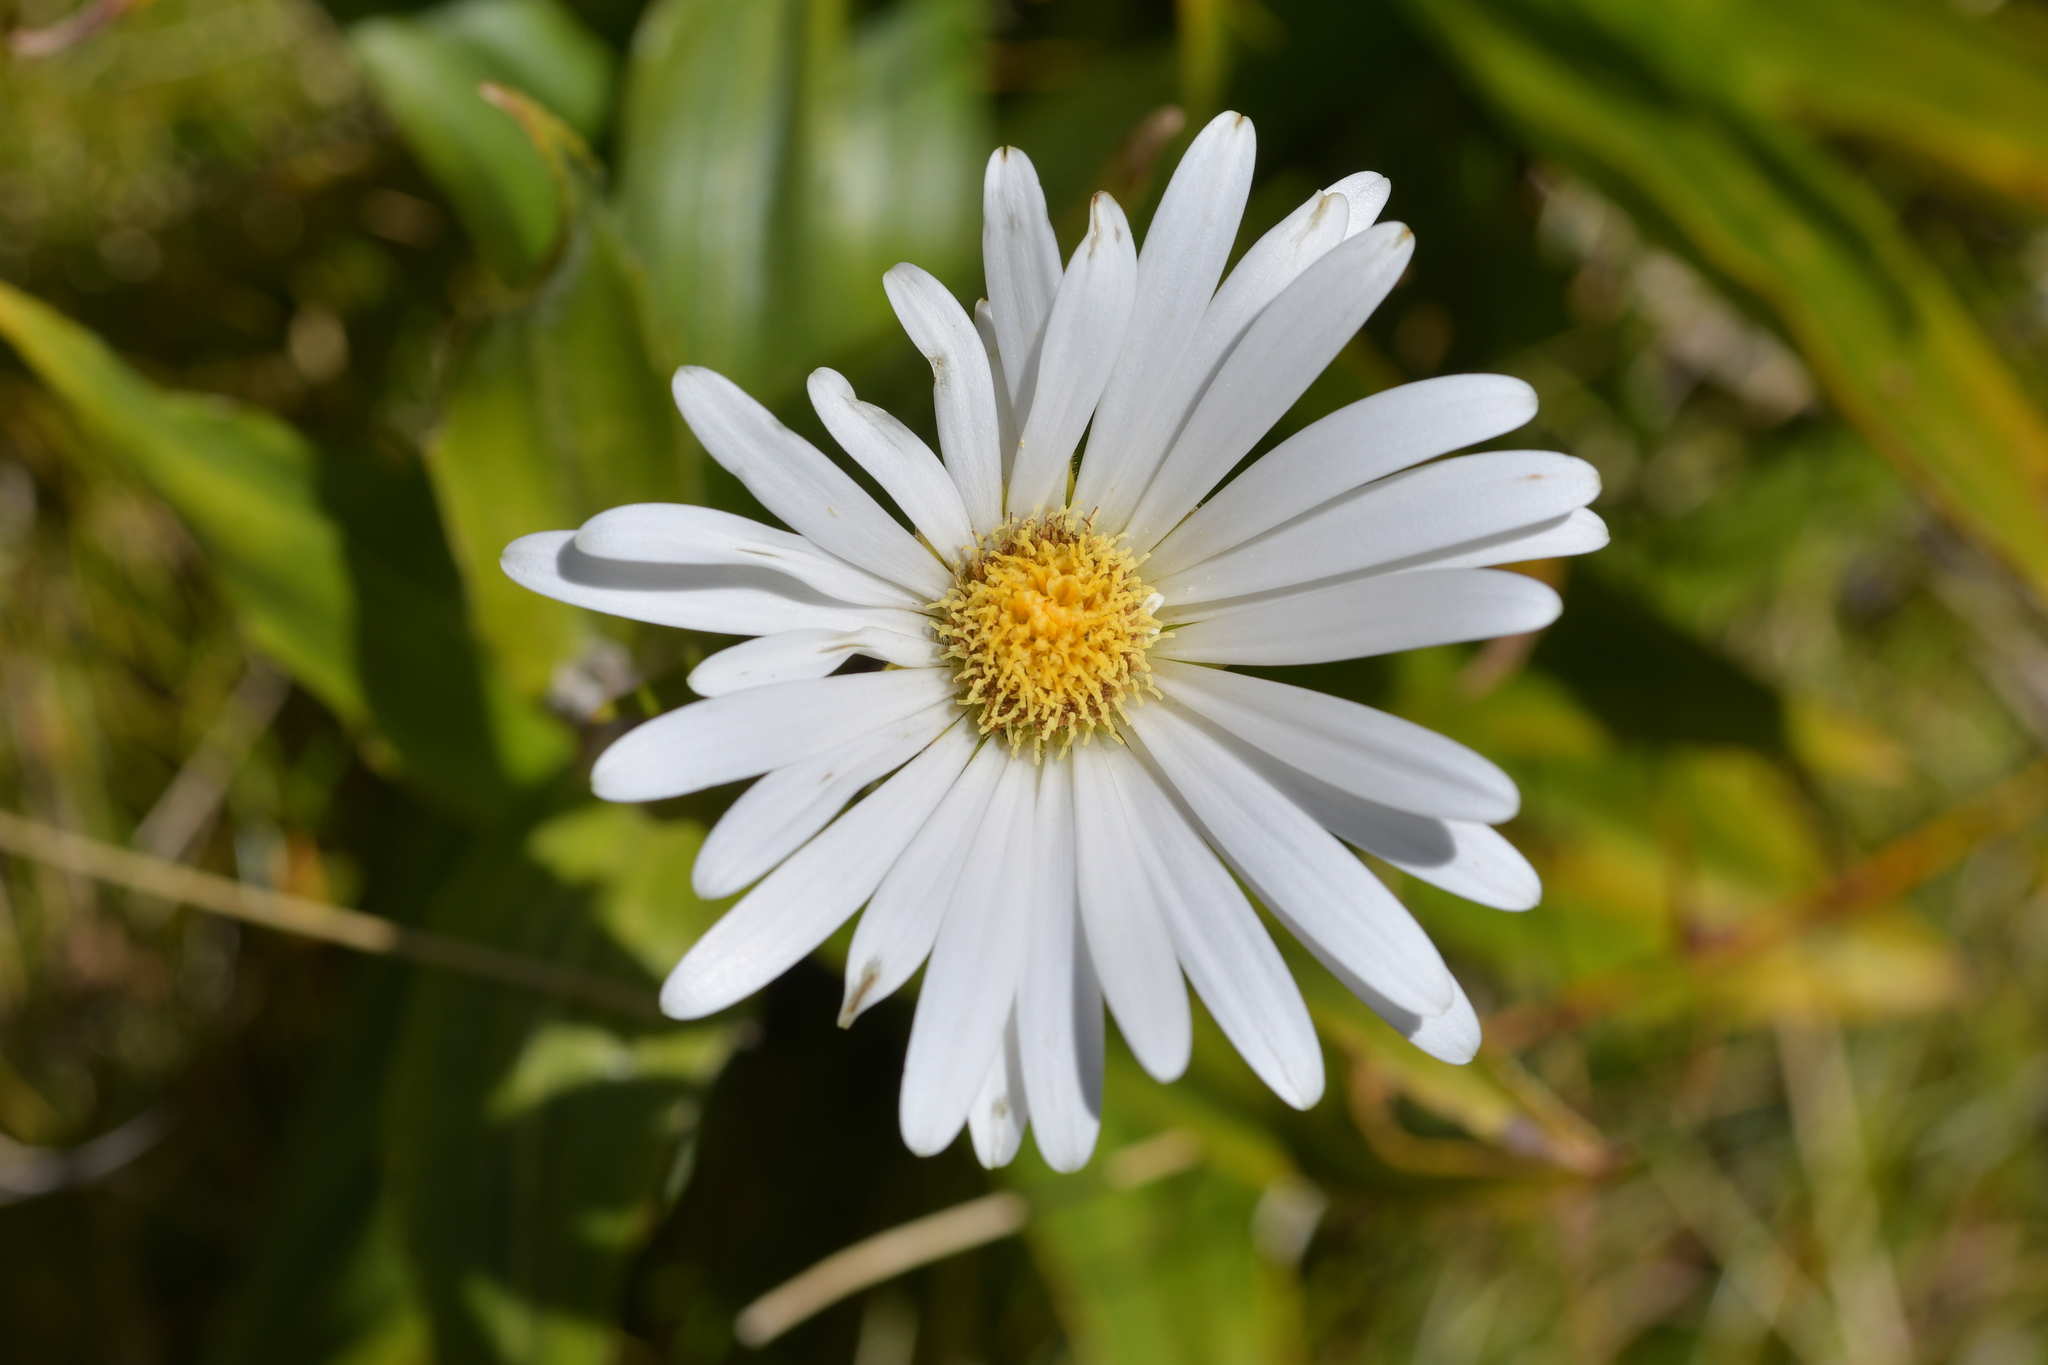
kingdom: Plantae
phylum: Tracheophyta
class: Magnoliopsida
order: Asterales
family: Asteraceae
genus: Dolichoglottis
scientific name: Dolichoglottis scorzoneroides
